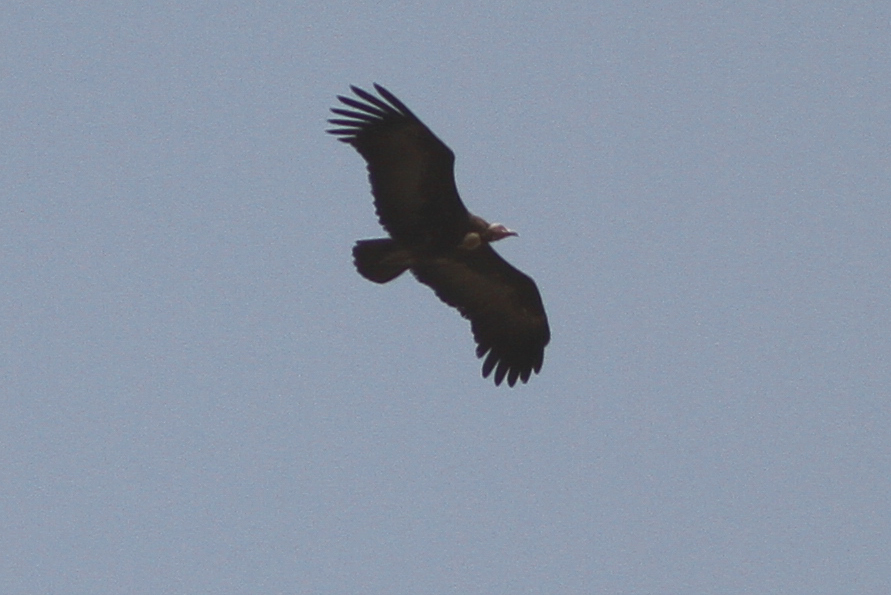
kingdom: Animalia
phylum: Chordata
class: Aves
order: Accipitriformes
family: Accipitridae
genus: Necrosyrtes
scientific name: Necrosyrtes monachus
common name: Hooded vulture
